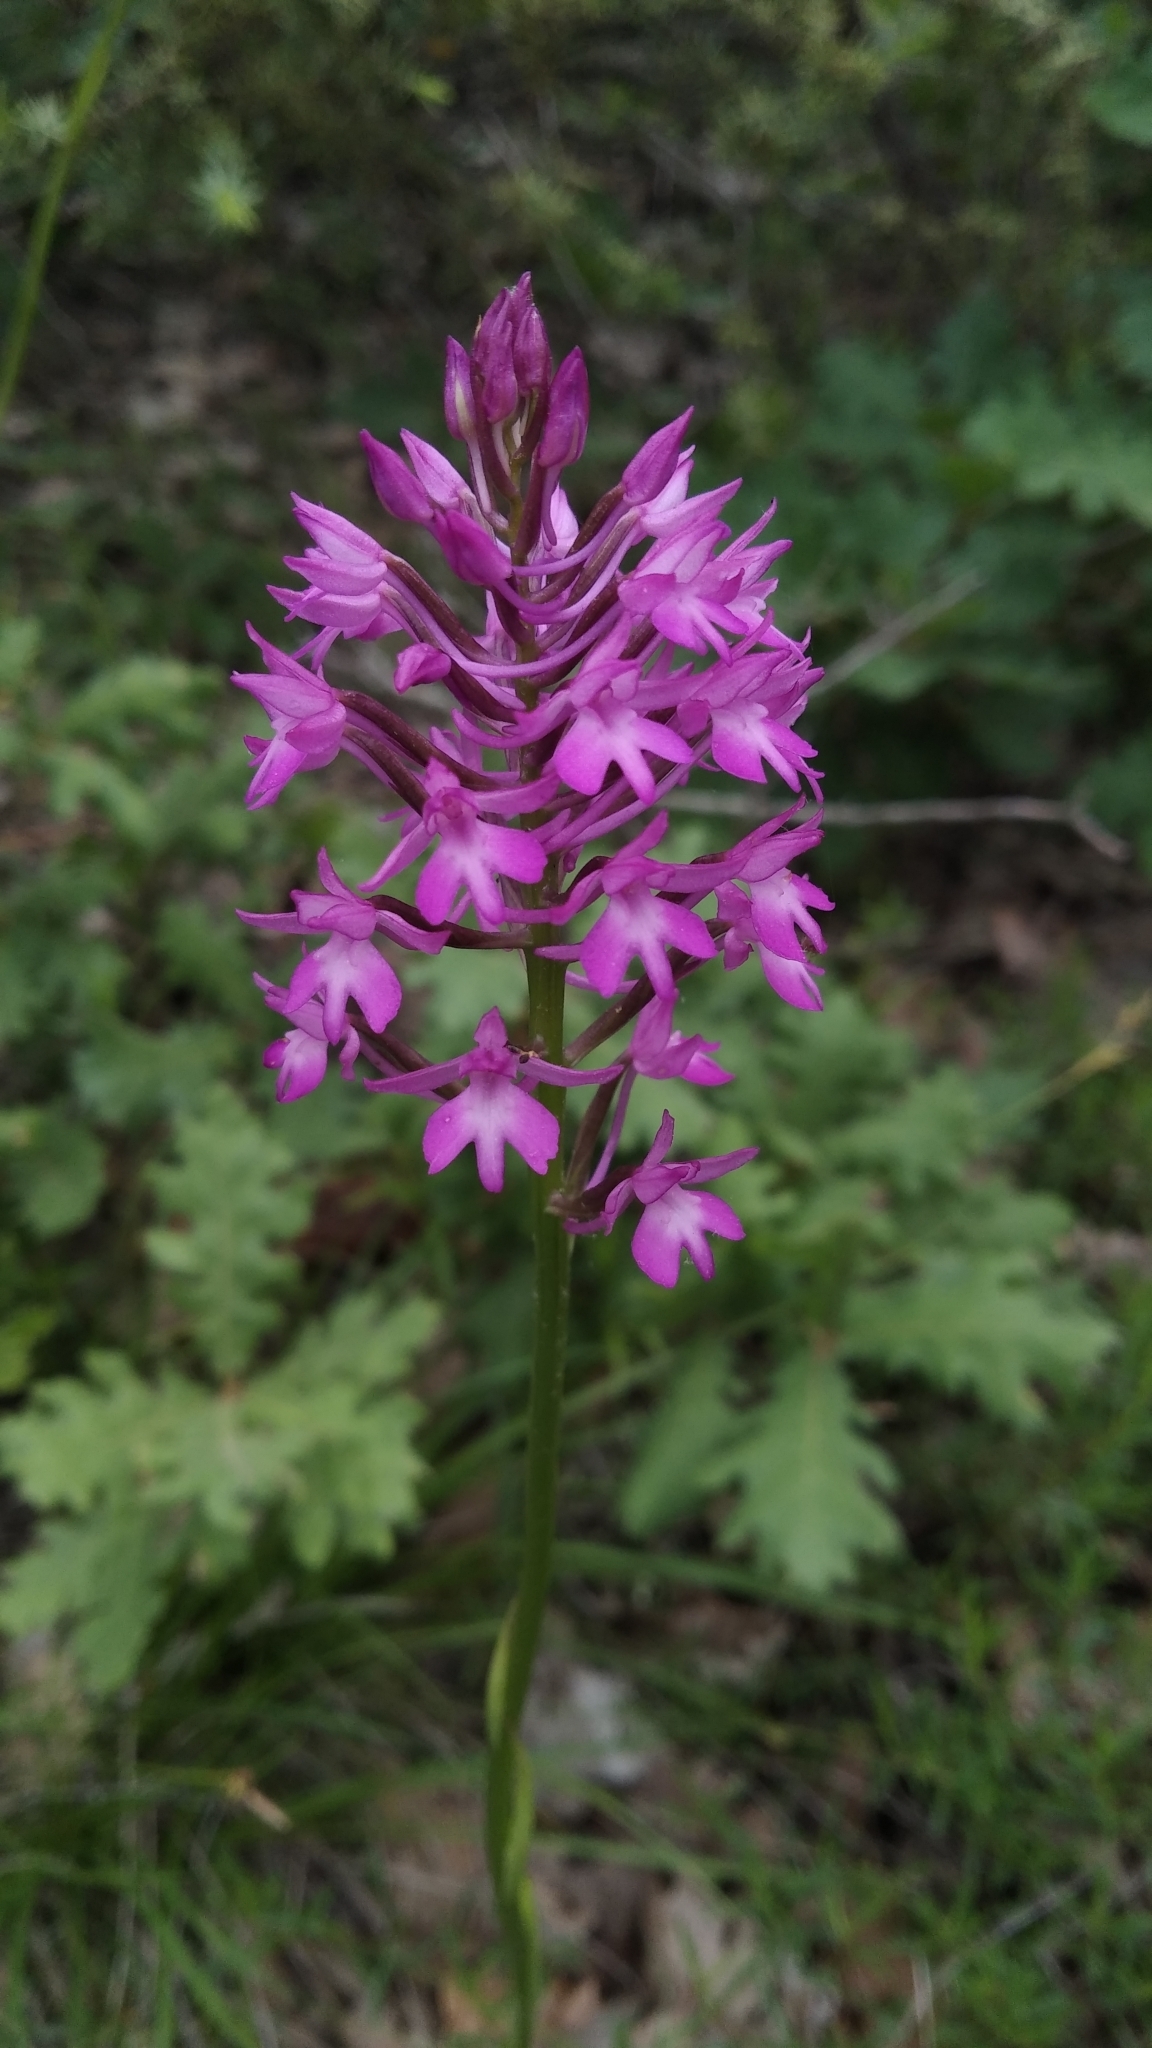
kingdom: Plantae
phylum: Tracheophyta
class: Liliopsida
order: Asparagales
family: Orchidaceae
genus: Anacamptis
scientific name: Anacamptis pyramidalis
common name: Pyramidal orchid
